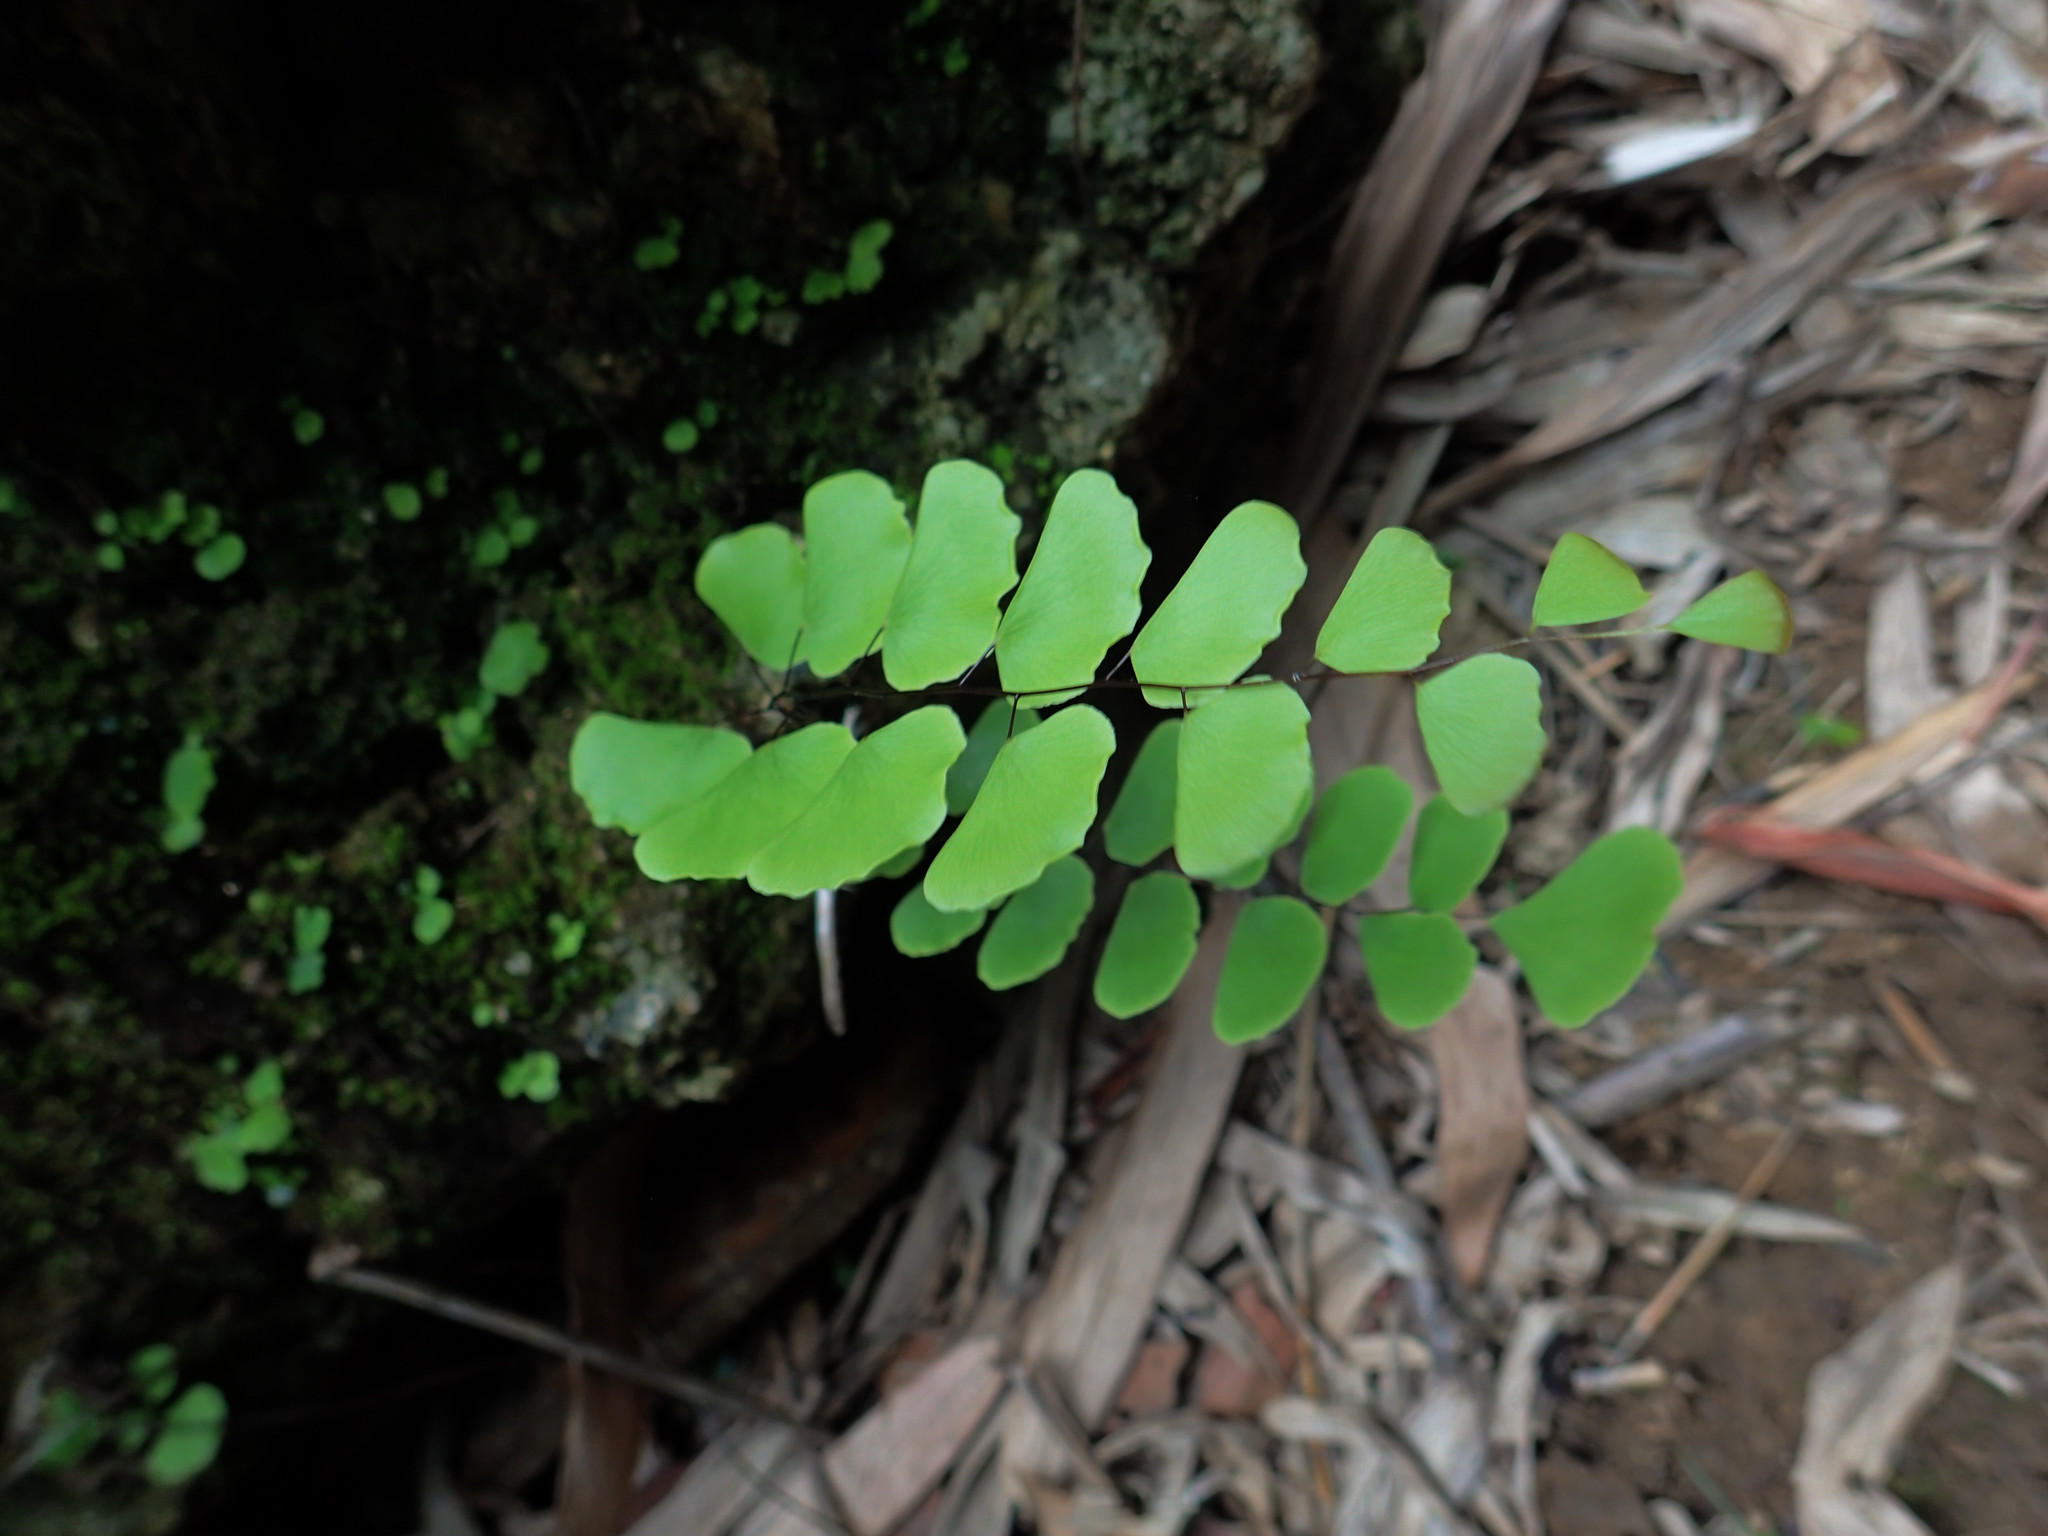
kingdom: Plantae
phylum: Tracheophyta
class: Polypodiopsida
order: Polypodiales
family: Pteridaceae
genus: Adiantum
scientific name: Adiantum philippense
